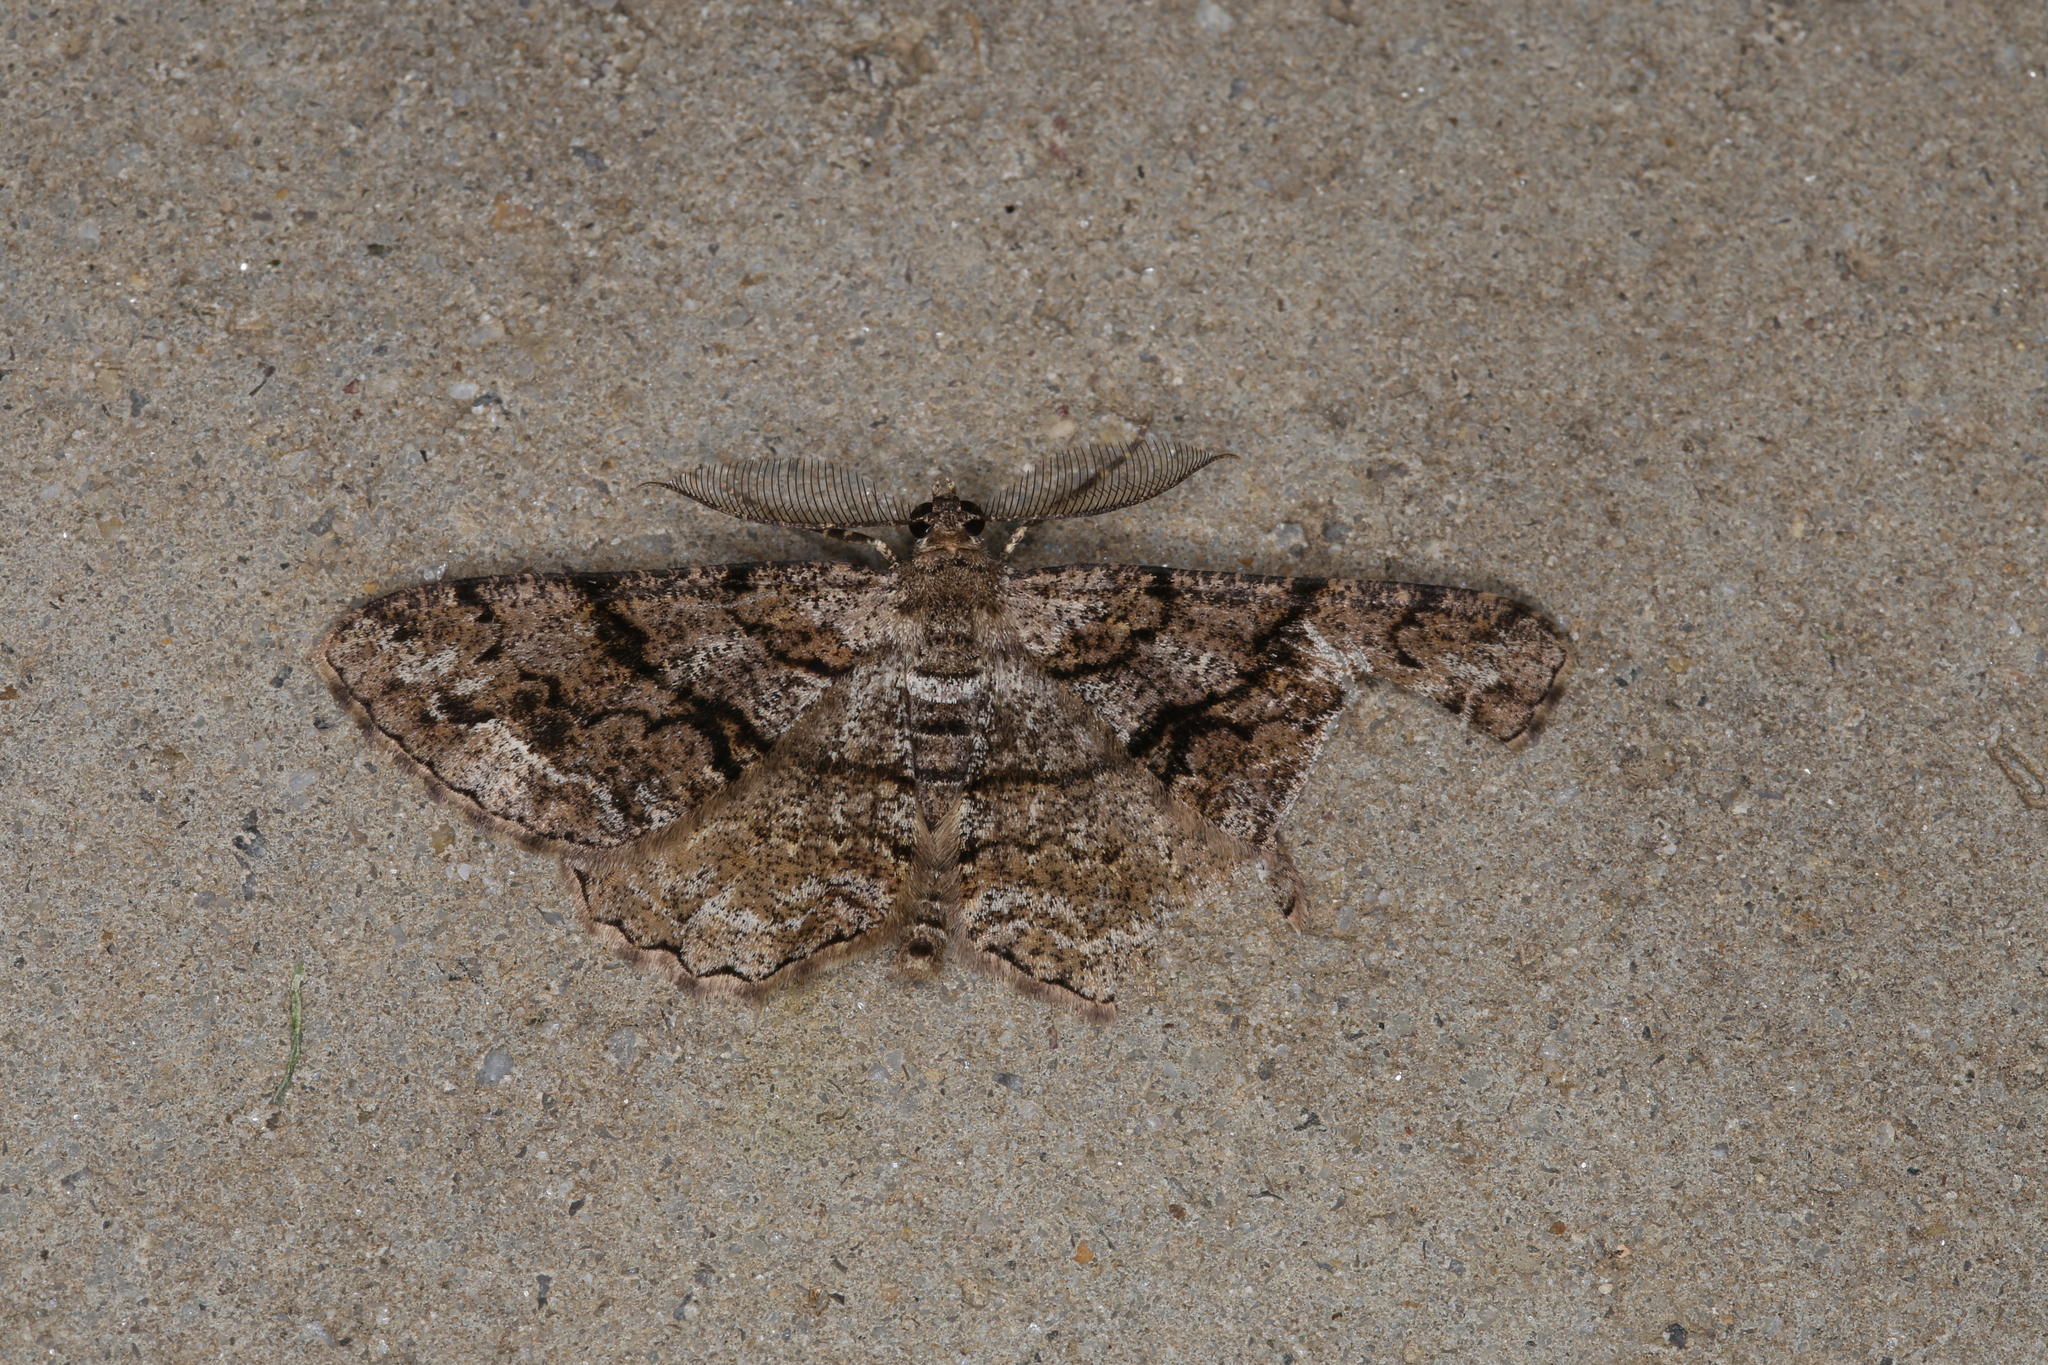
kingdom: Animalia
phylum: Arthropoda
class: Insecta
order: Lepidoptera
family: Geometridae
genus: Peribatodes
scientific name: Peribatodes secundaria
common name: Feathered beauty
